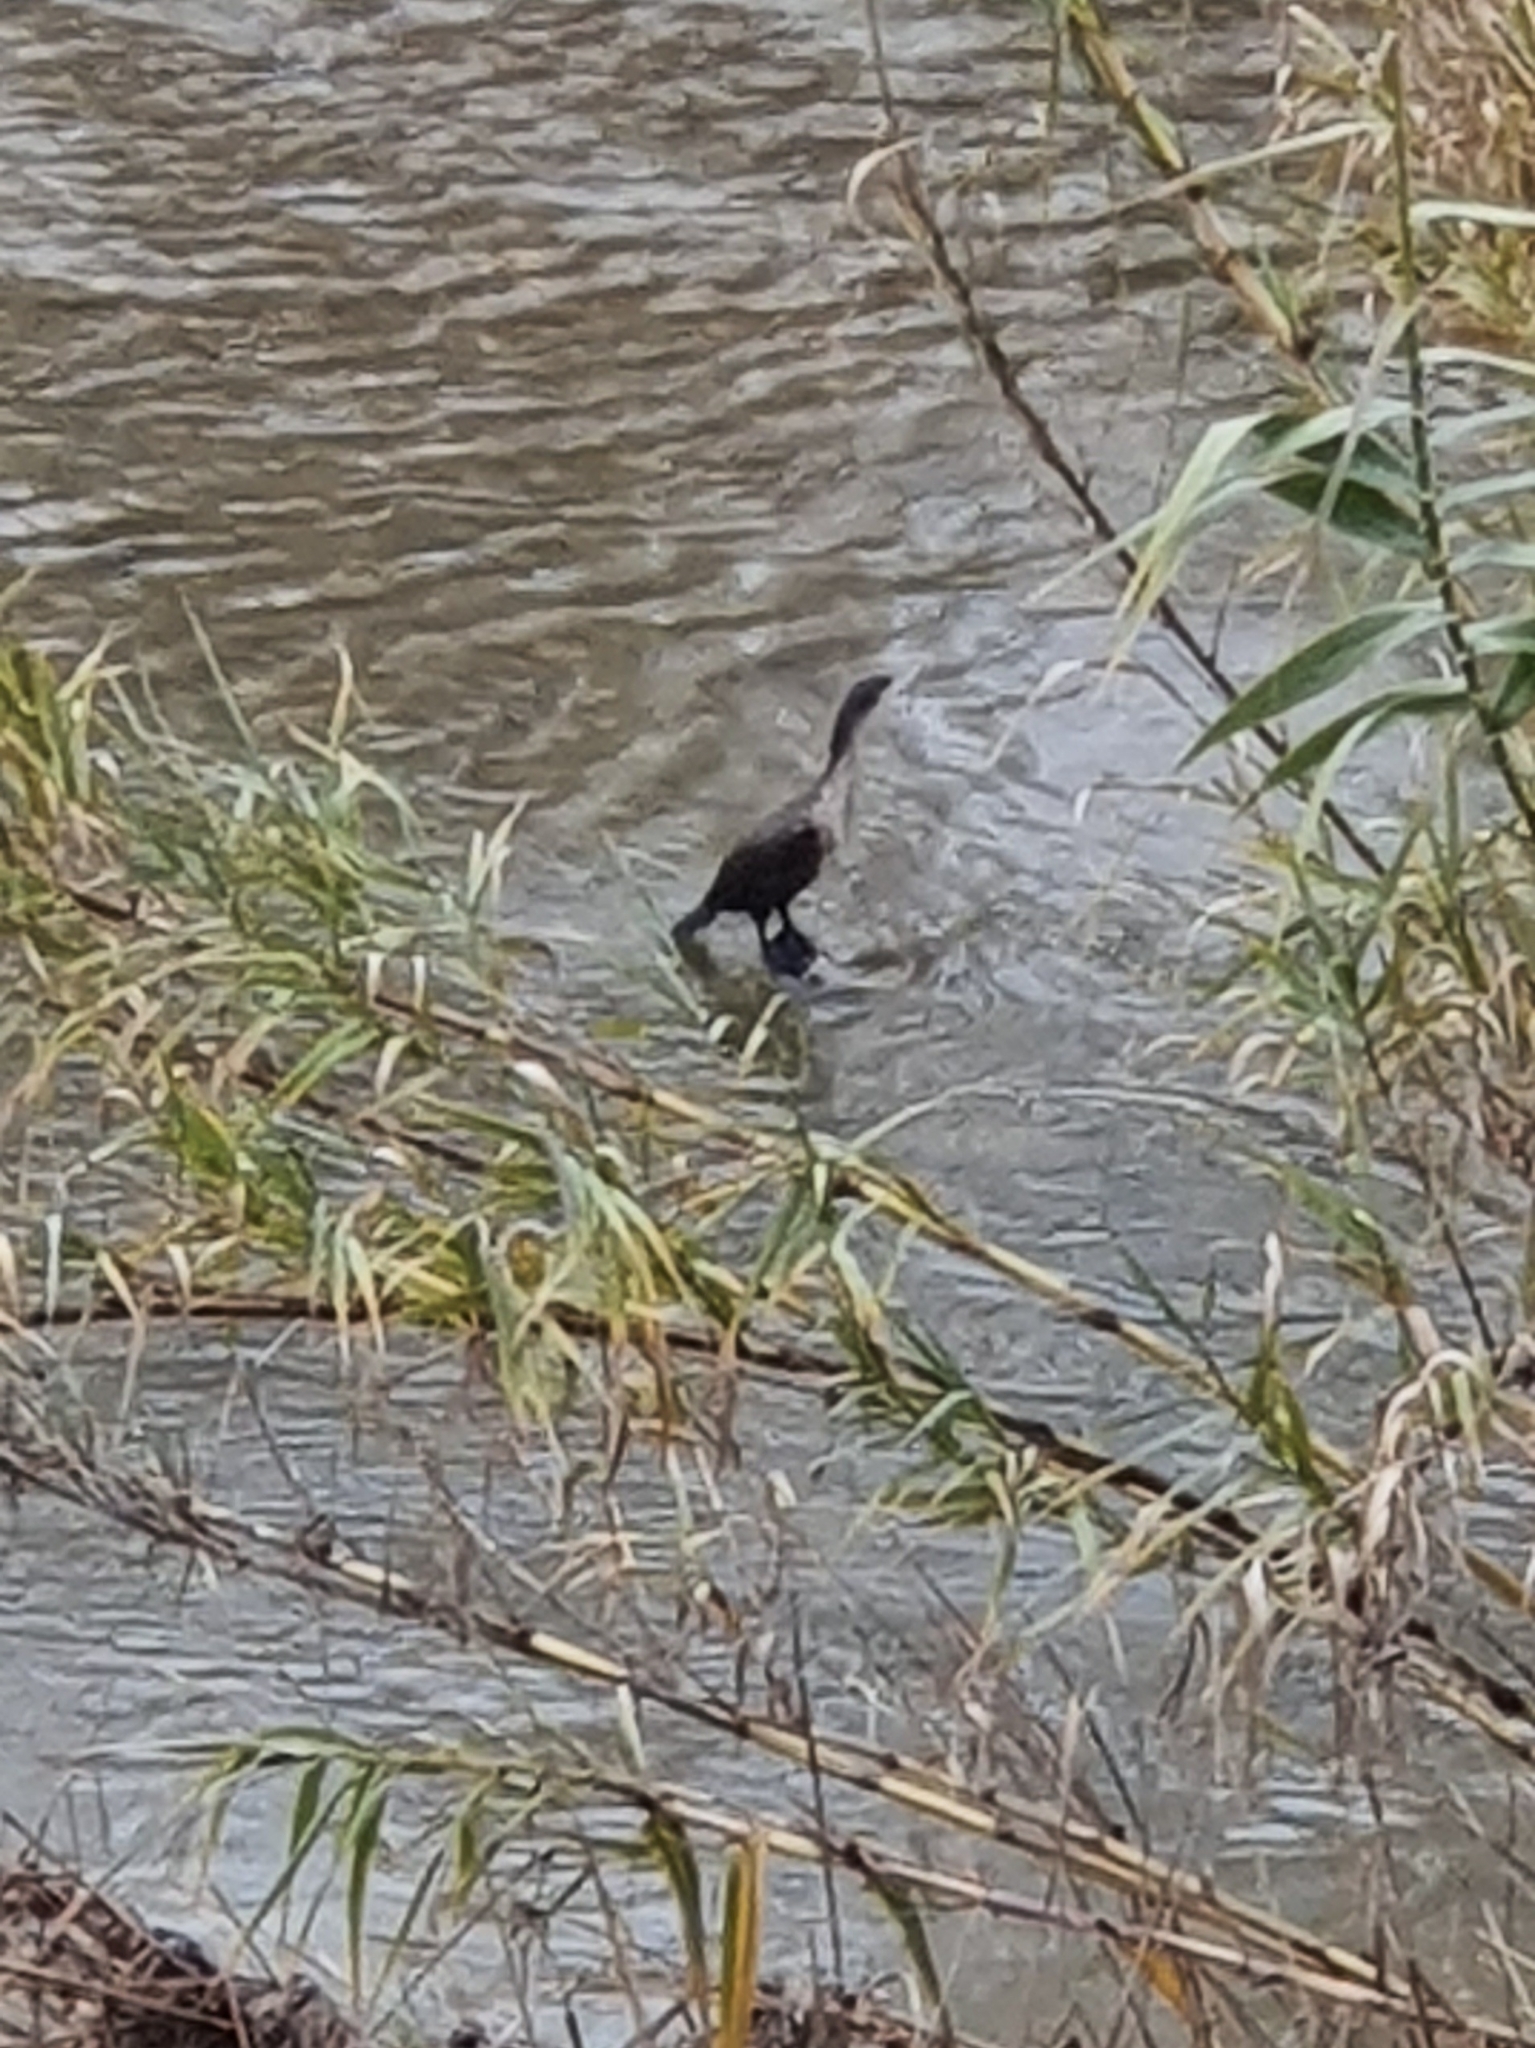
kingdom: Animalia
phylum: Chordata
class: Aves
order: Suliformes
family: Phalacrocoracidae
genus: Phalacrocorax
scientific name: Phalacrocorax carbo
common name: Great cormorant
